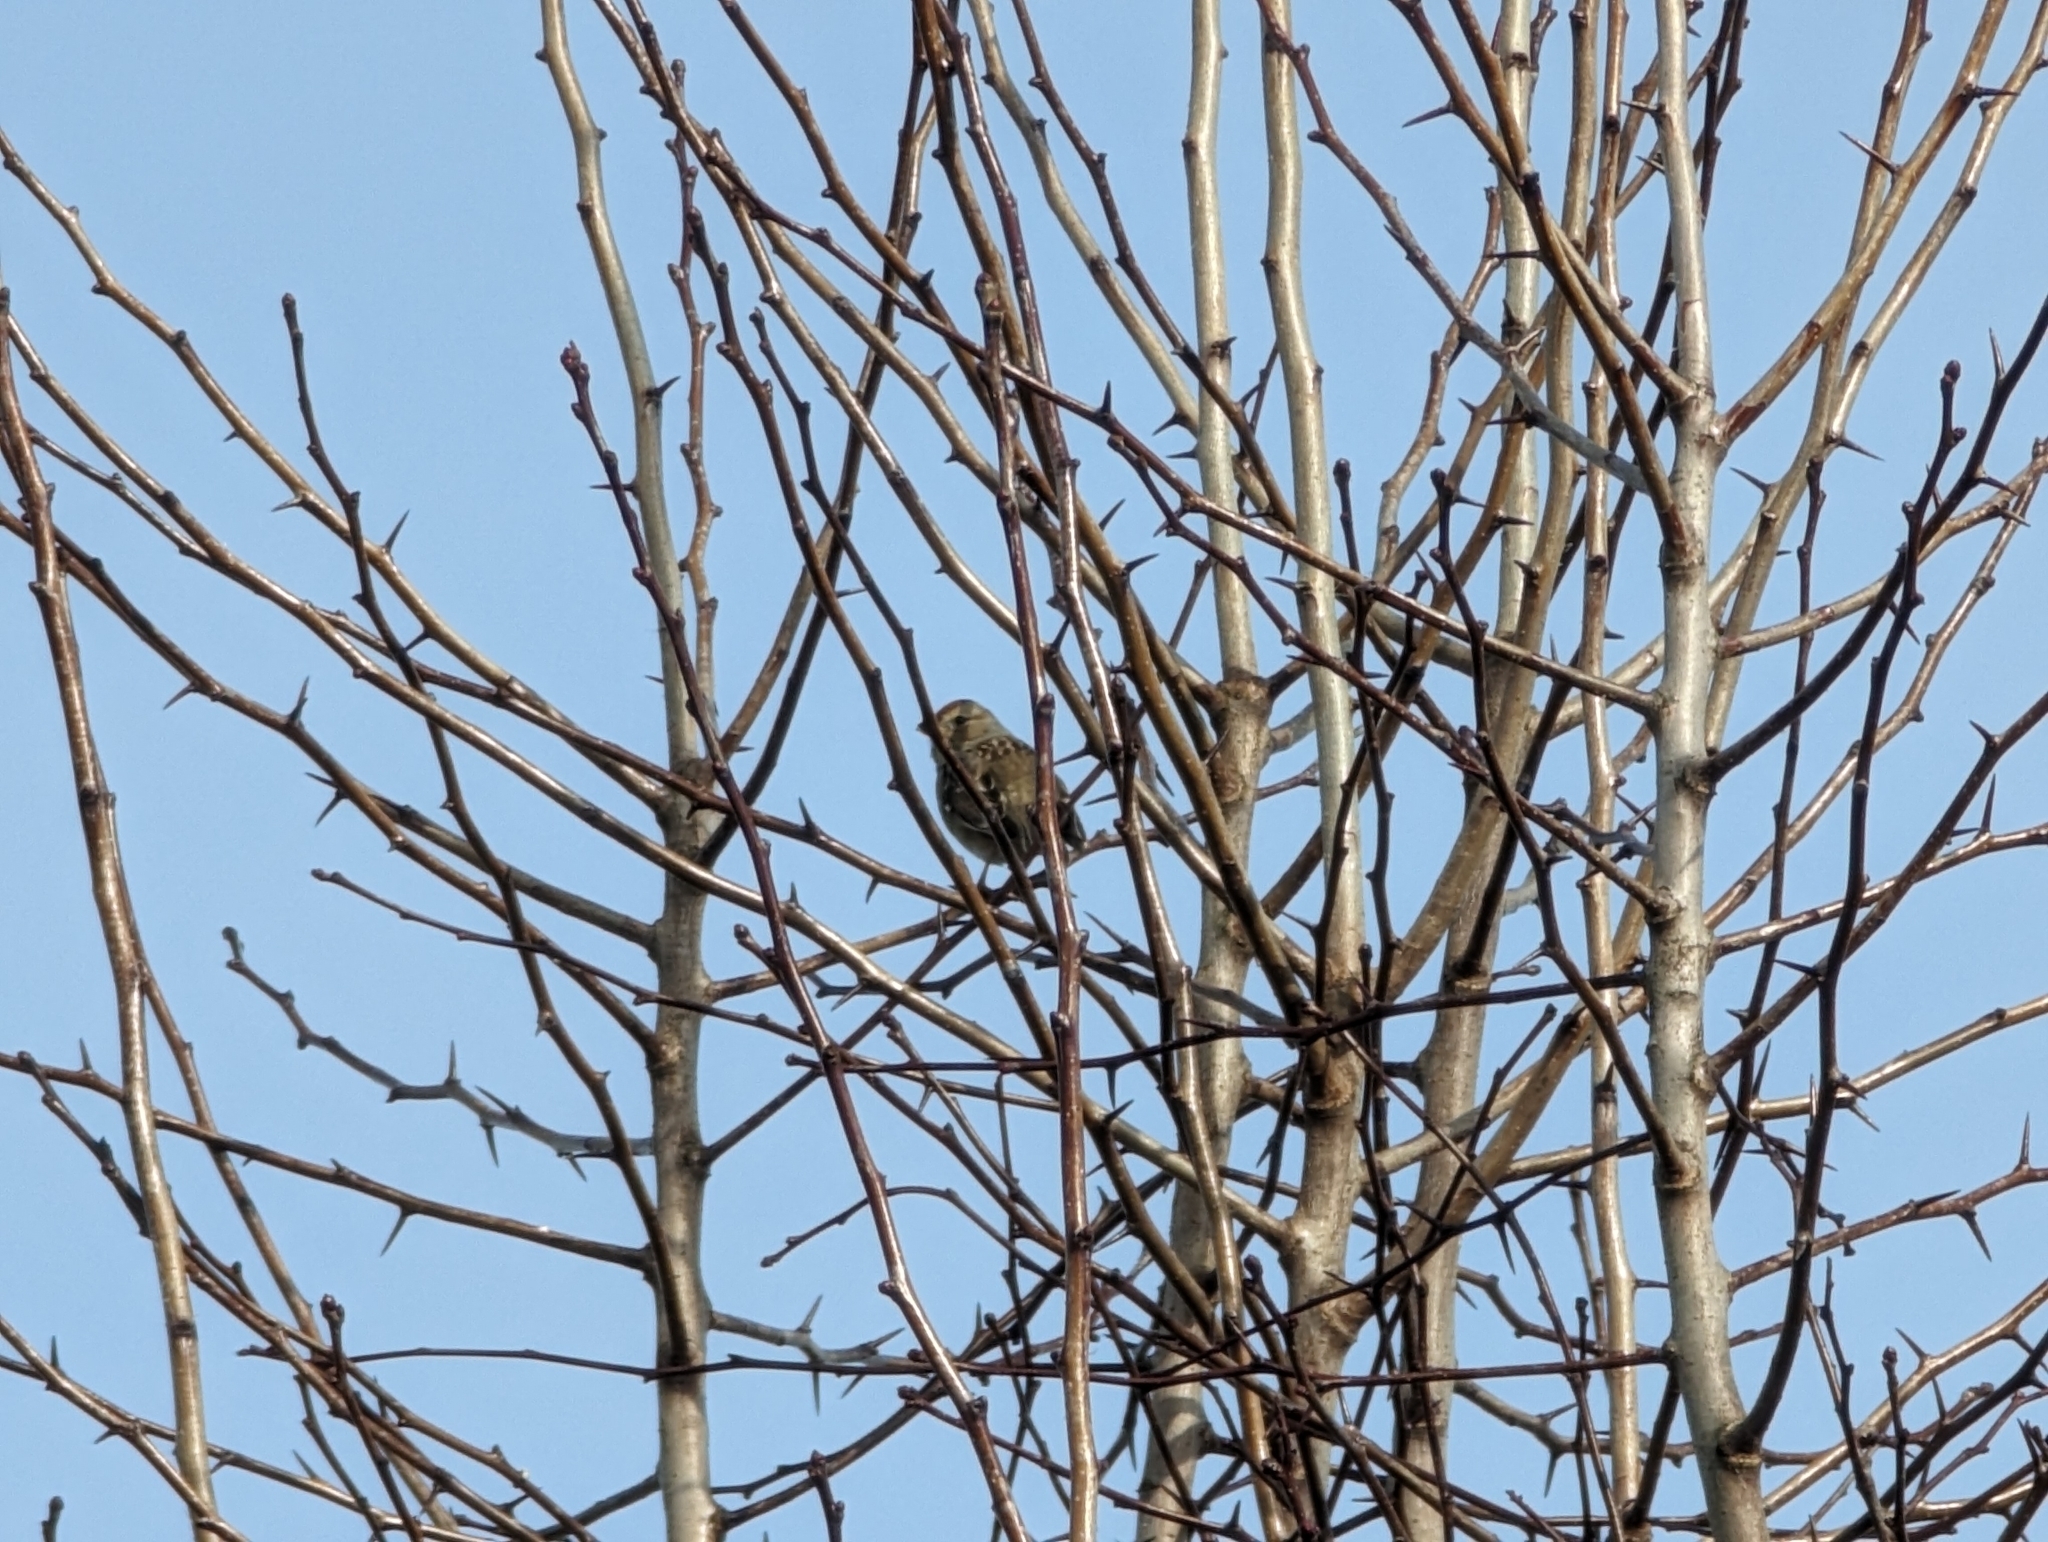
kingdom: Animalia
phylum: Chordata
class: Aves
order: Passeriformes
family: Passerellidae
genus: Zonotrichia
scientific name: Zonotrichia leucophrys
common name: White-crowned sparrow
